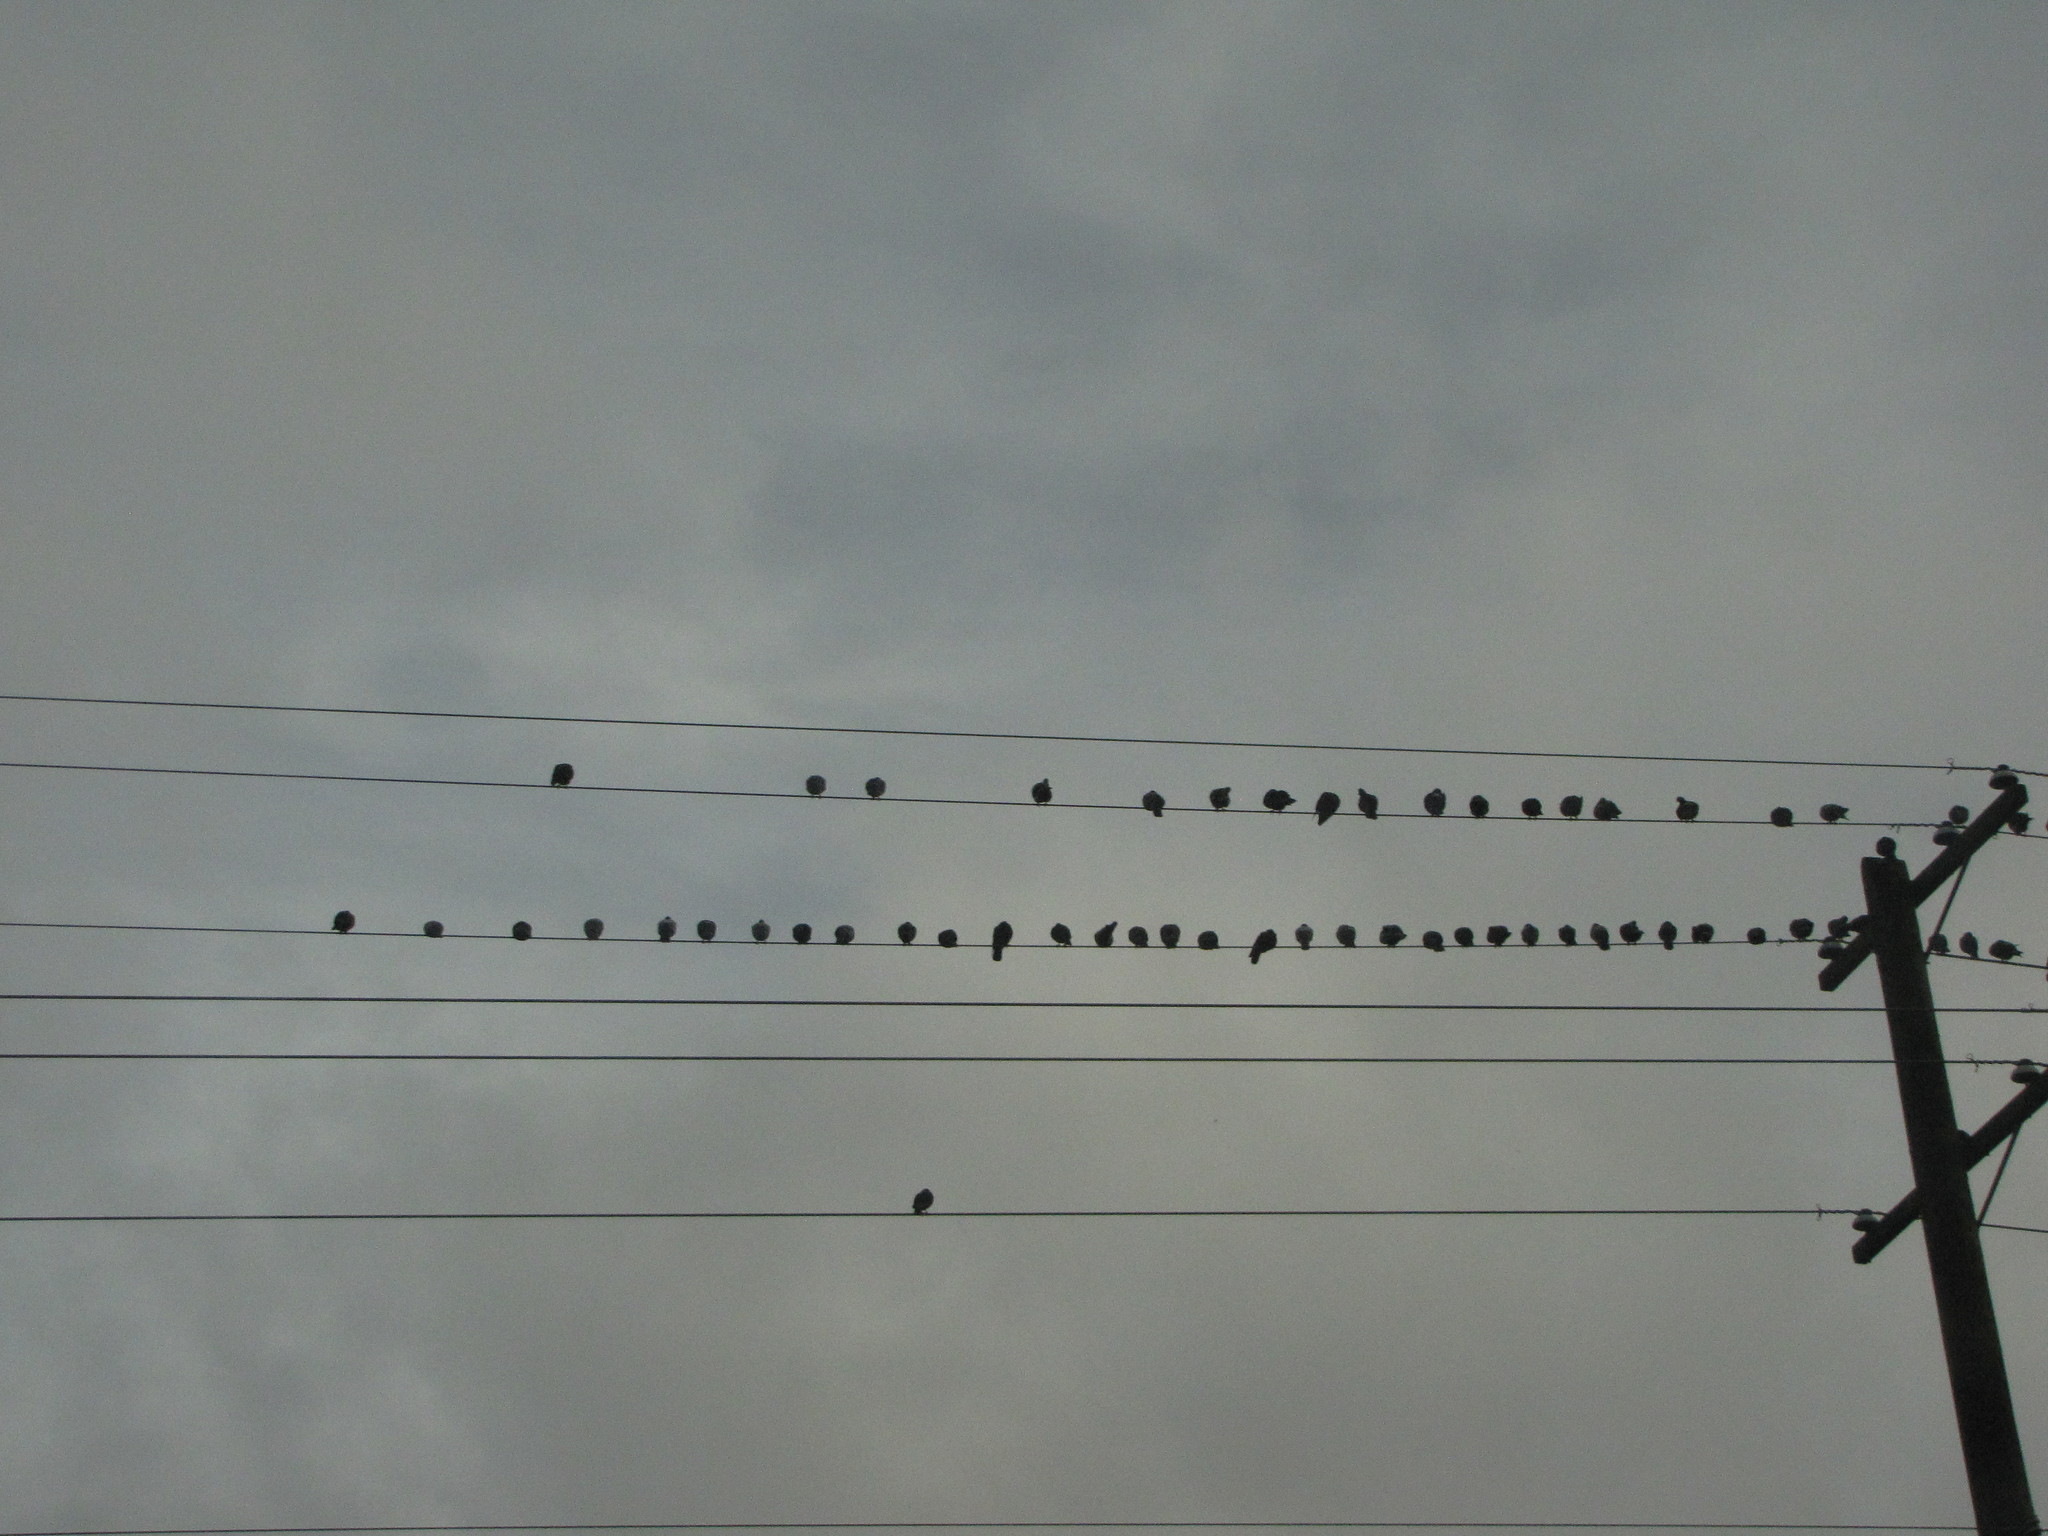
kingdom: Animalia
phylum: Chordata
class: Aves
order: Columbiformes
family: Columbidae
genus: Columba
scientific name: Columba livia
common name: Rock pigeon
